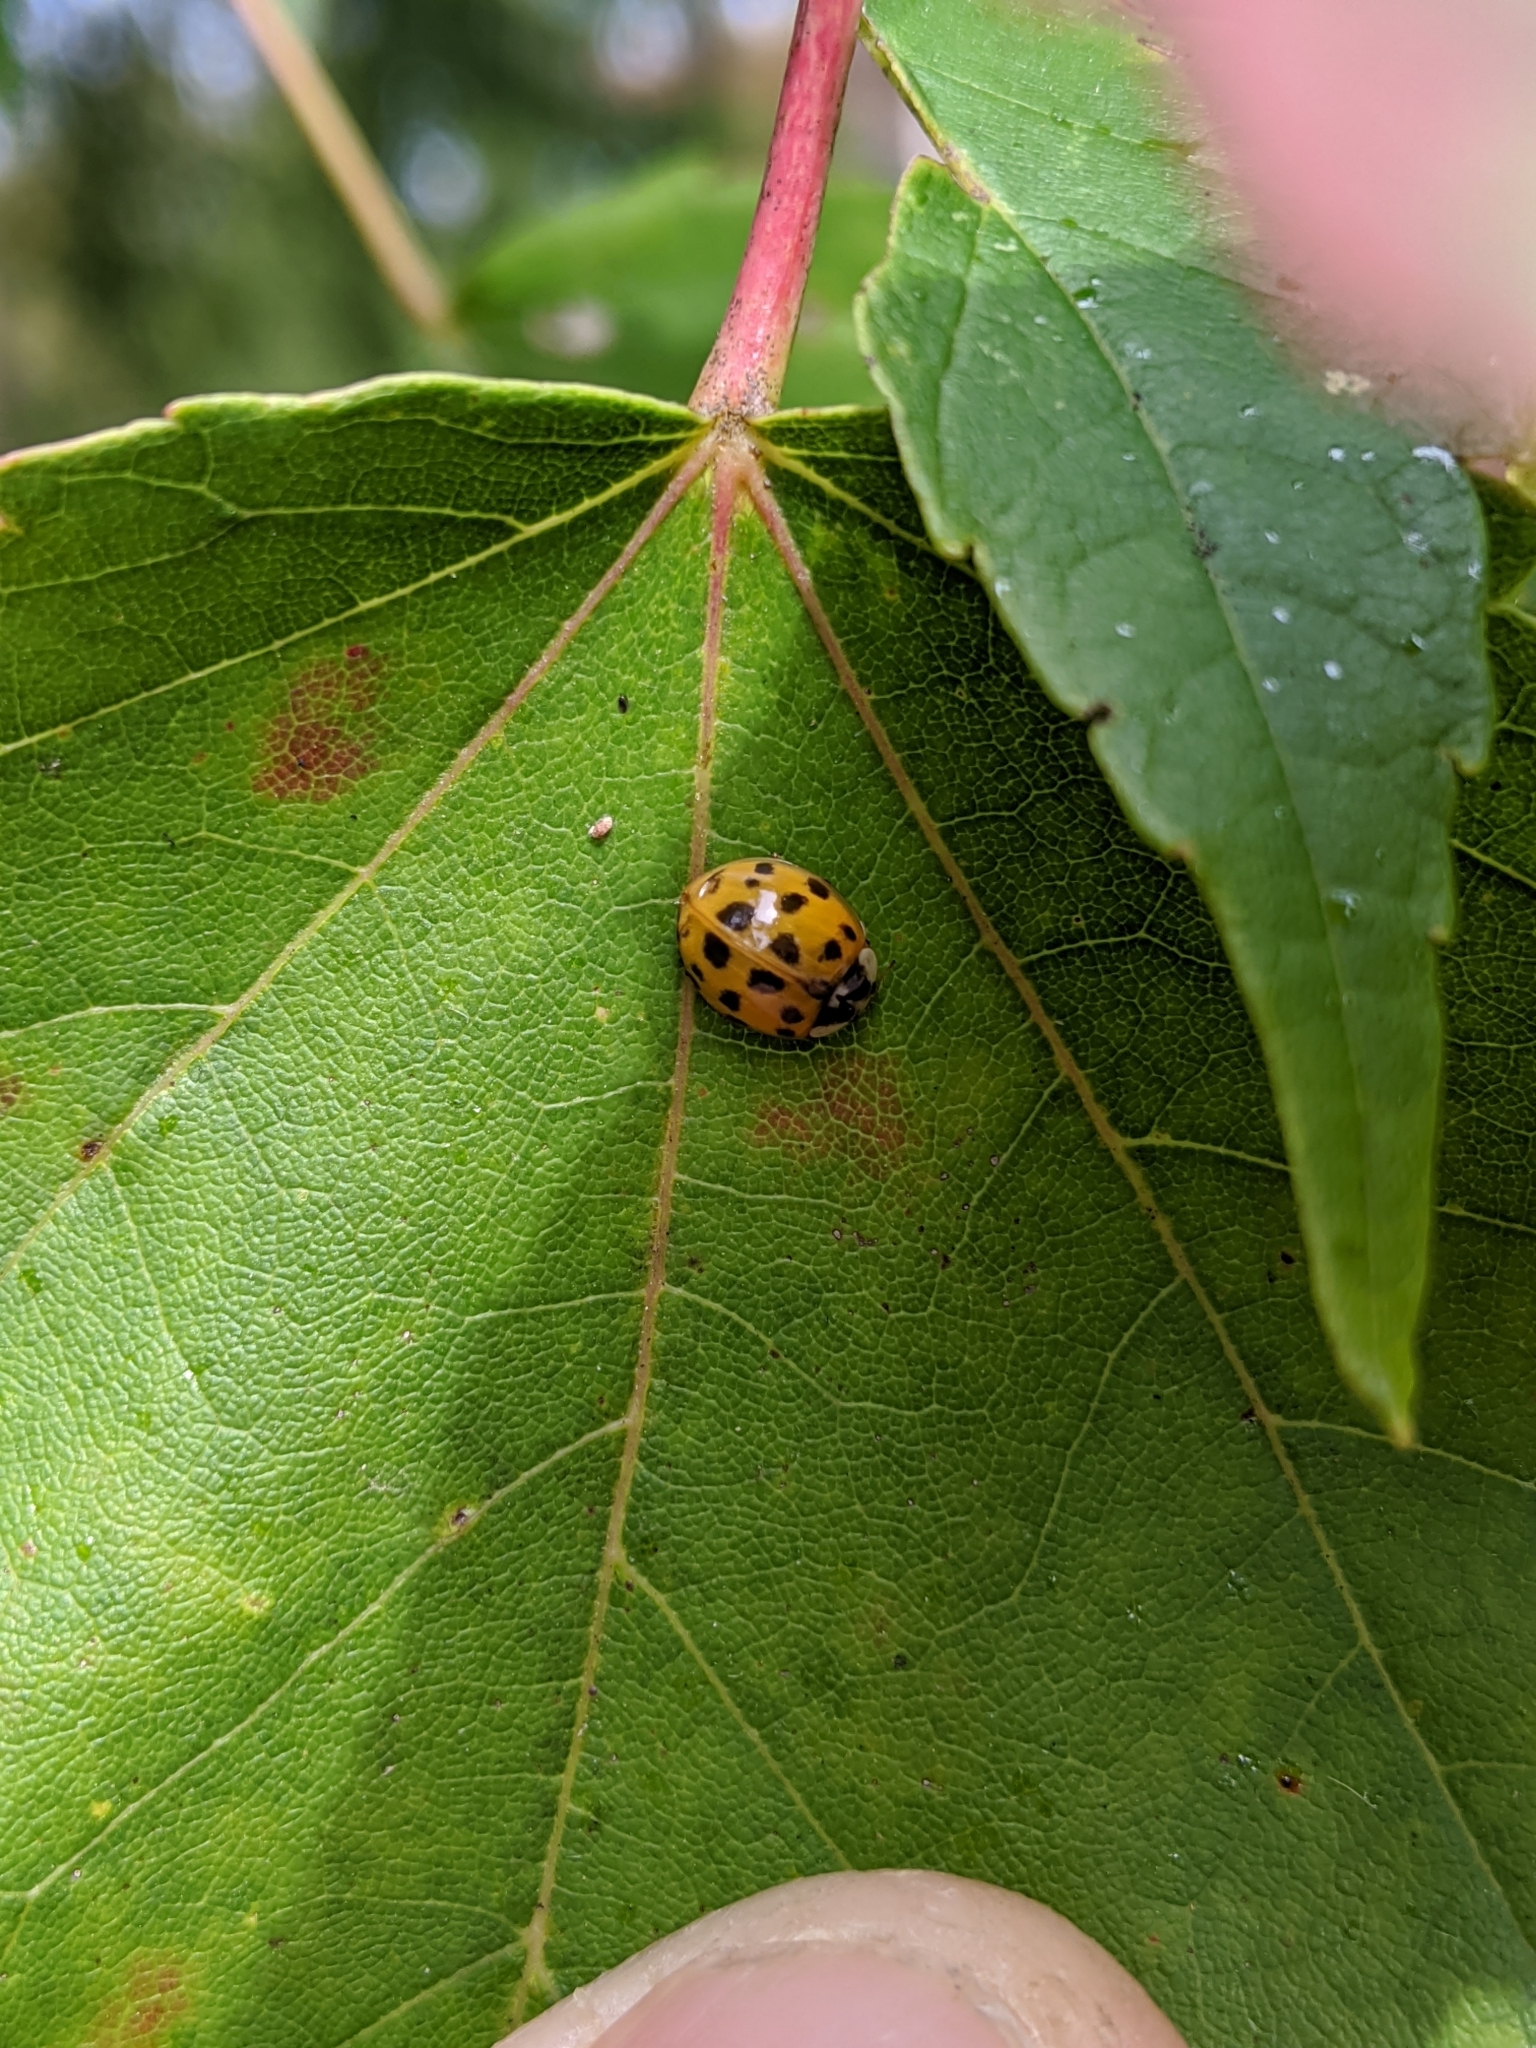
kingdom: Animalia
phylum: Arthropoda
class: Insecta
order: Coleoptera
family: Coccinellidae
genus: Harmonia
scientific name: Harmonia axyridis
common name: Harlequin ladybird
